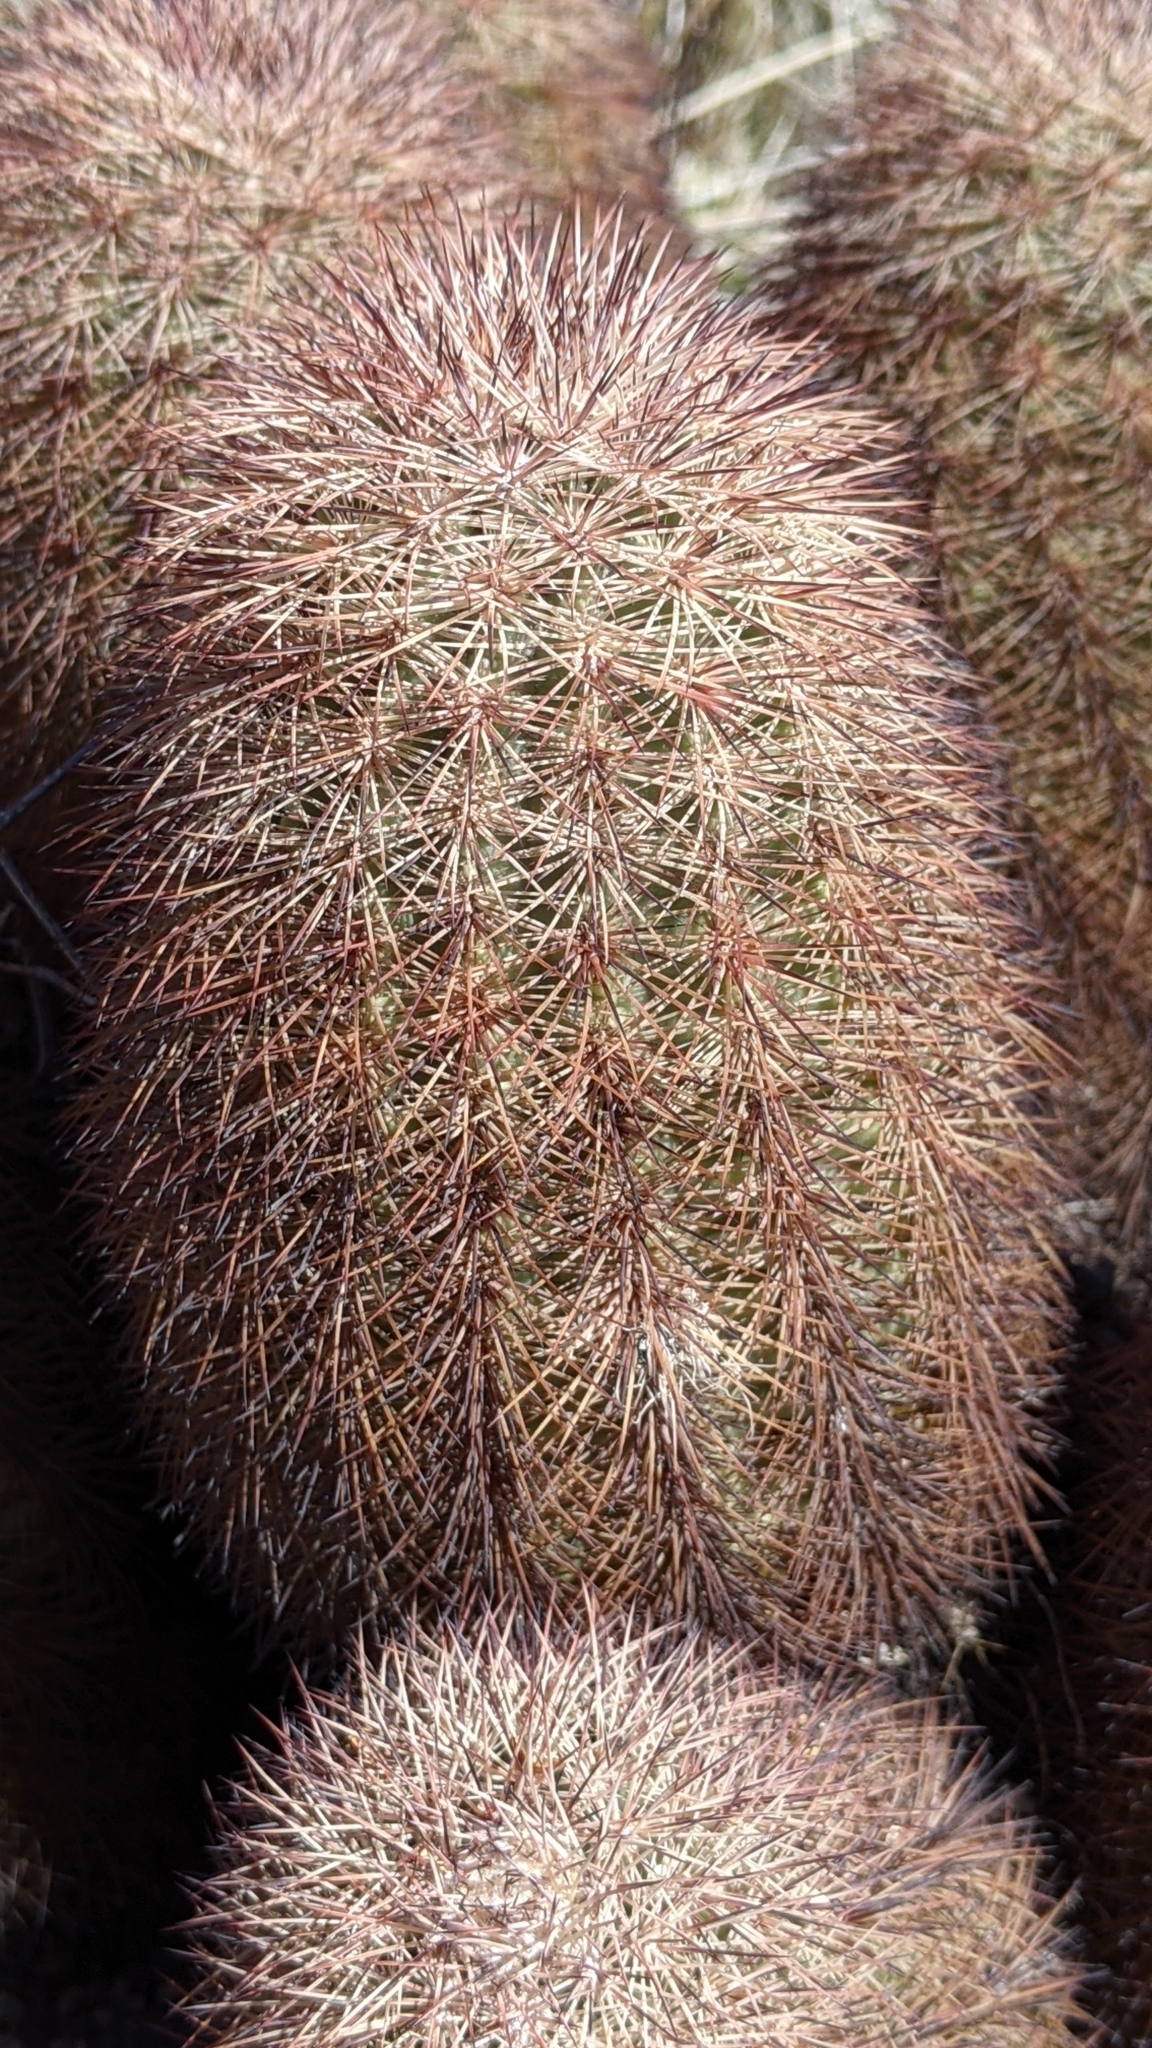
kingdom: Plantae
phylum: Tracheophyta
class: Magnoliopsida
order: Caryophyllales
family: Cactaceae
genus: Echinocereus
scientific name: Echinocereus dasyacanthus
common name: Spiny hedgehog cactus
